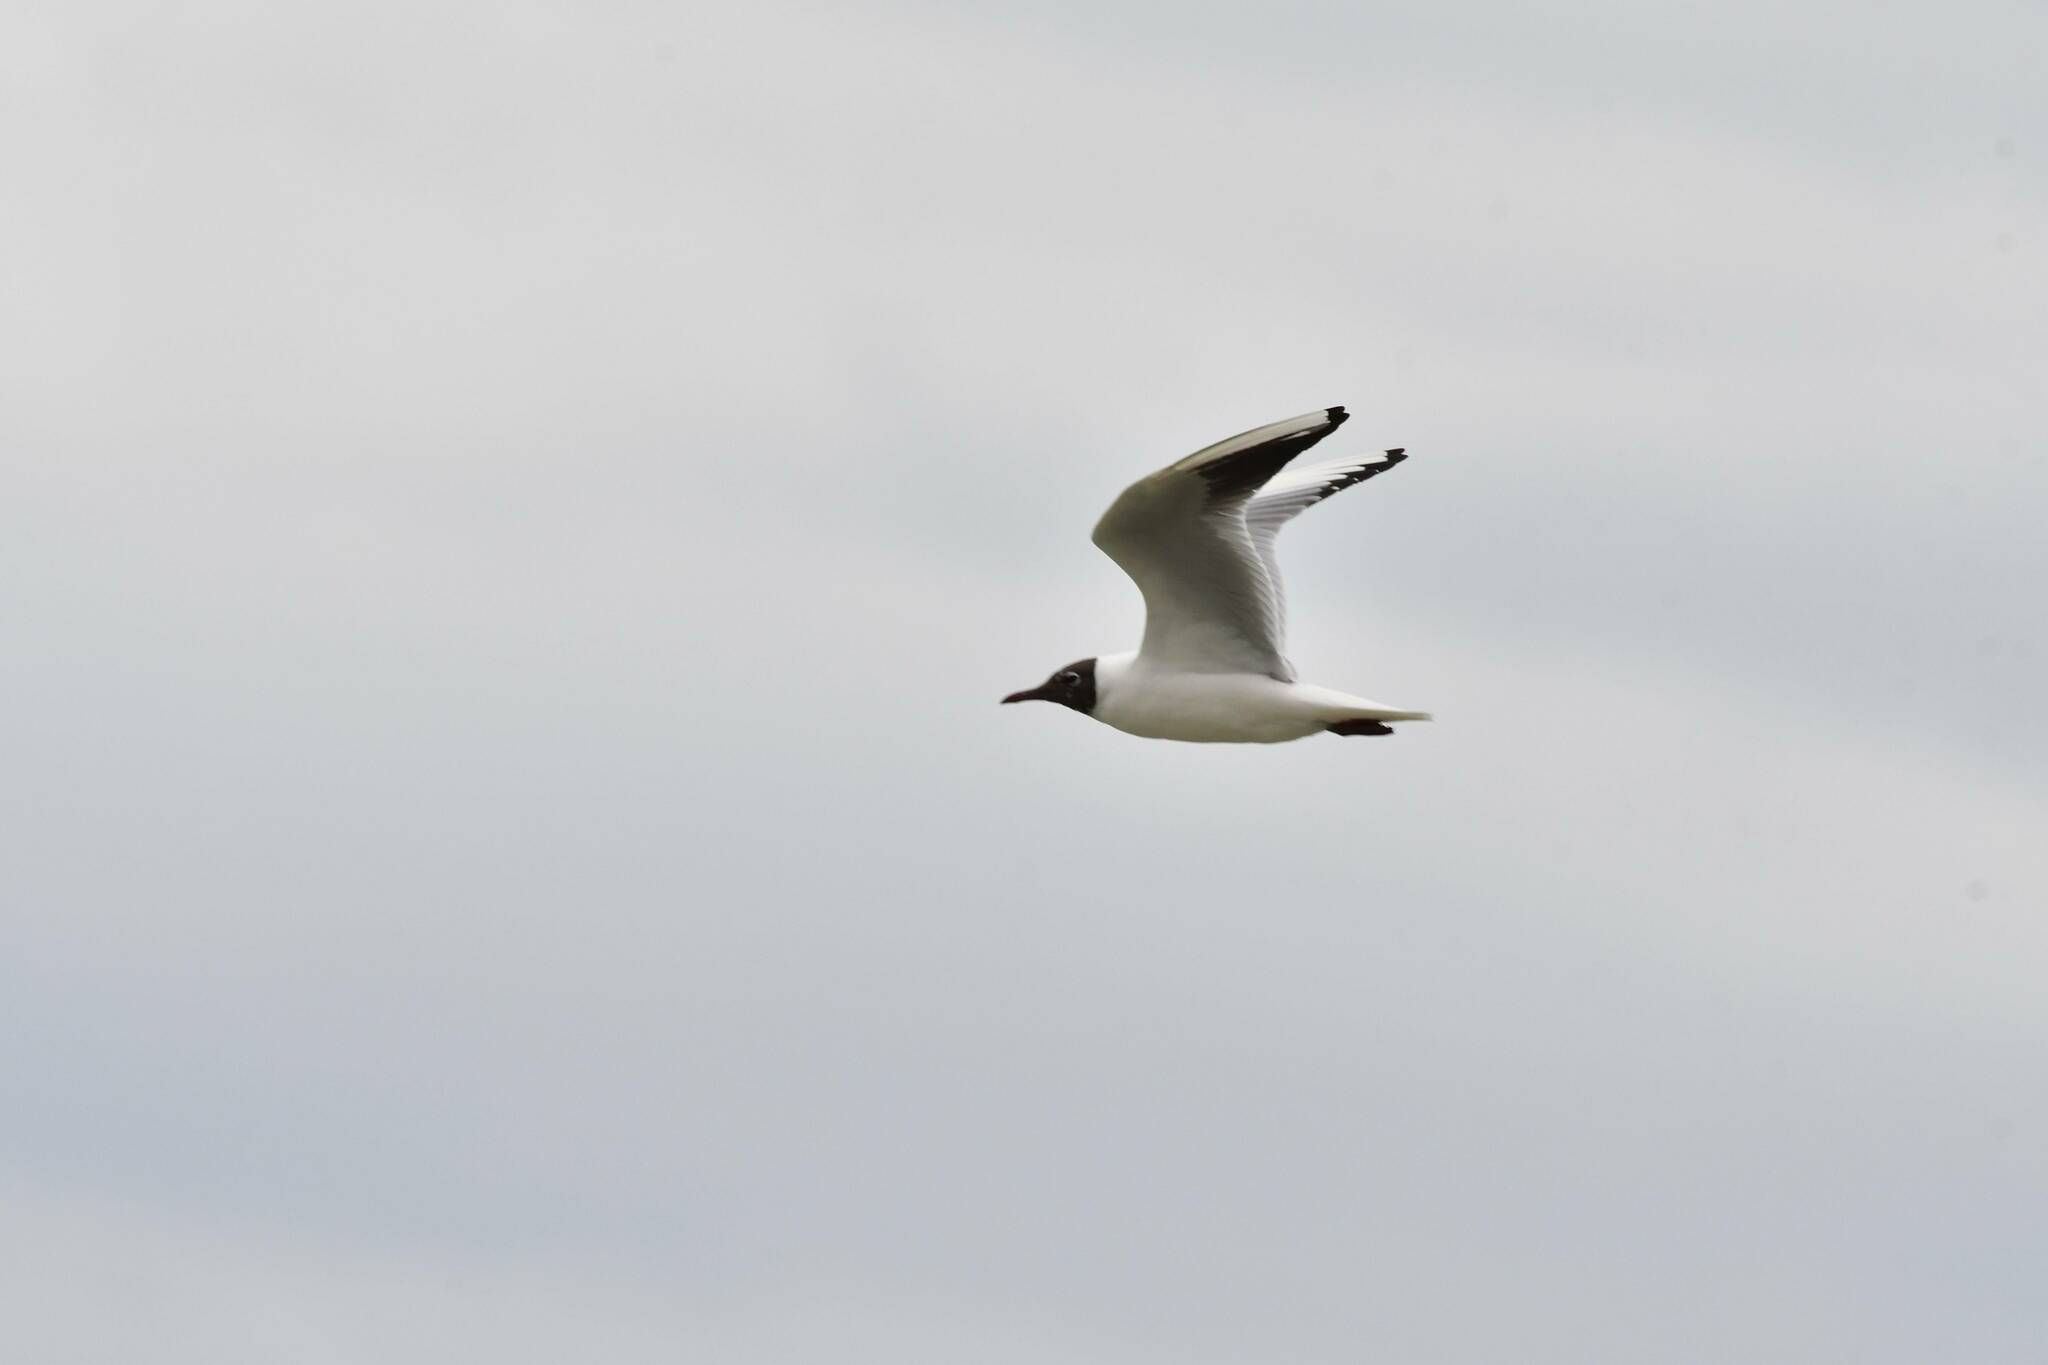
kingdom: Animalia
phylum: Chordata
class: Aves
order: Charadriiformes
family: Laridae
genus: Chroicocephalus
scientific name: Chroicocephalus ridibundus
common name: Black-headed gull
